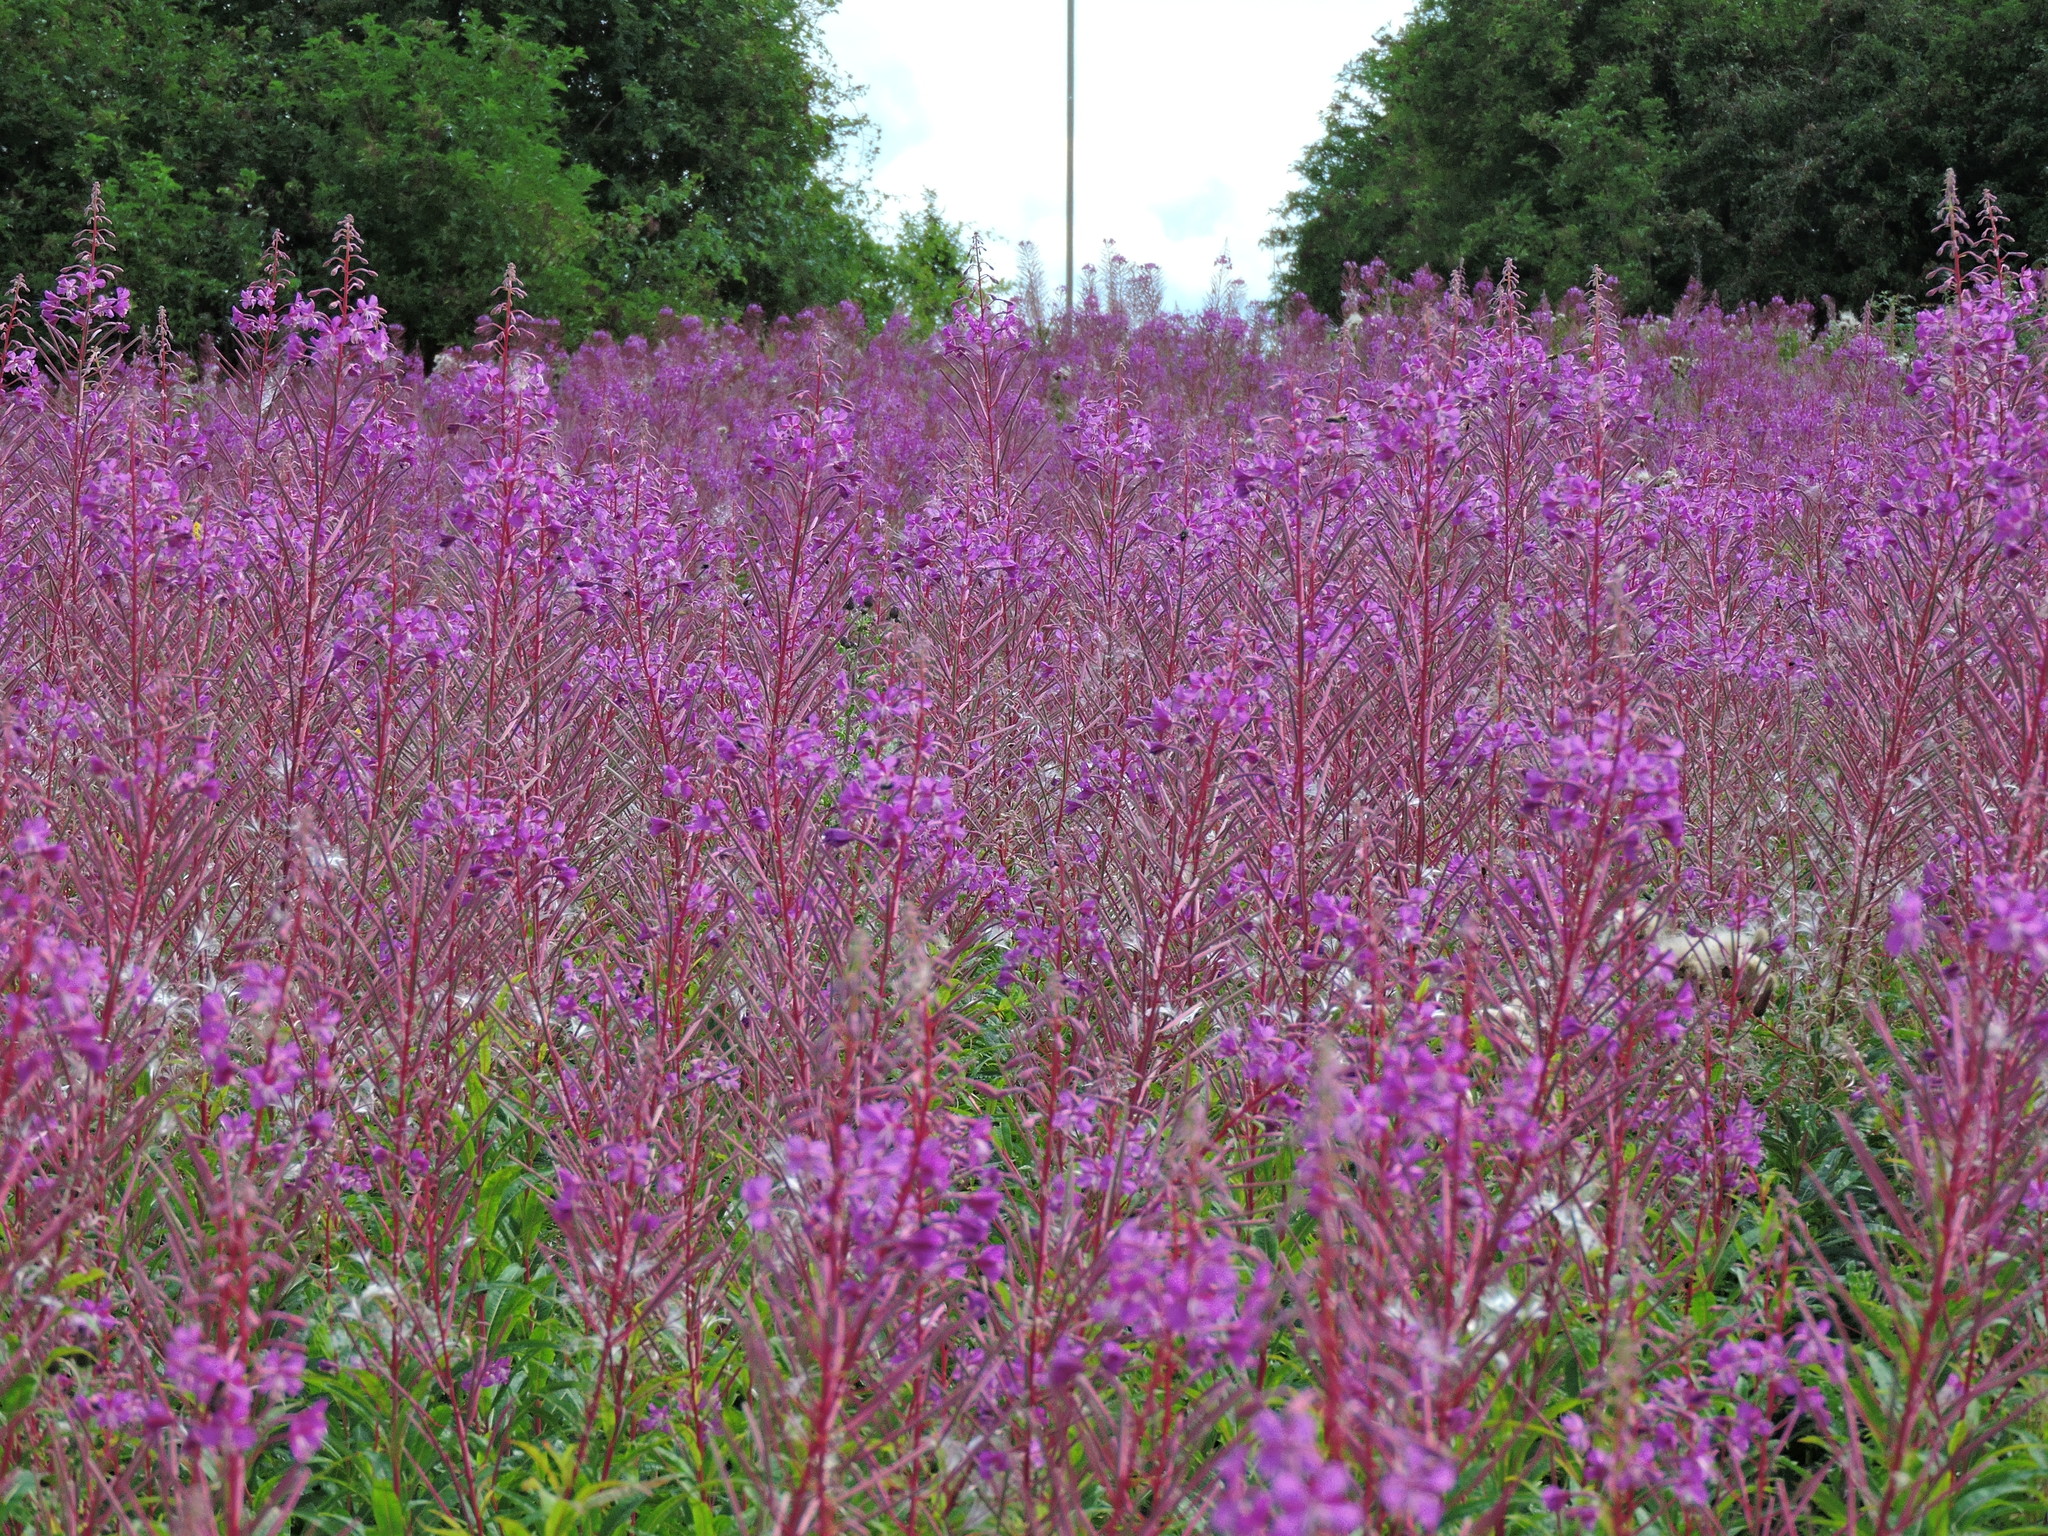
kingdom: Plantae
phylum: Tracheophyta
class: Magnoliopsida
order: Myrtales
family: Onagraceae
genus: Chamaenerion
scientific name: Chamaenerion angustifolium
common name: Fireweed
